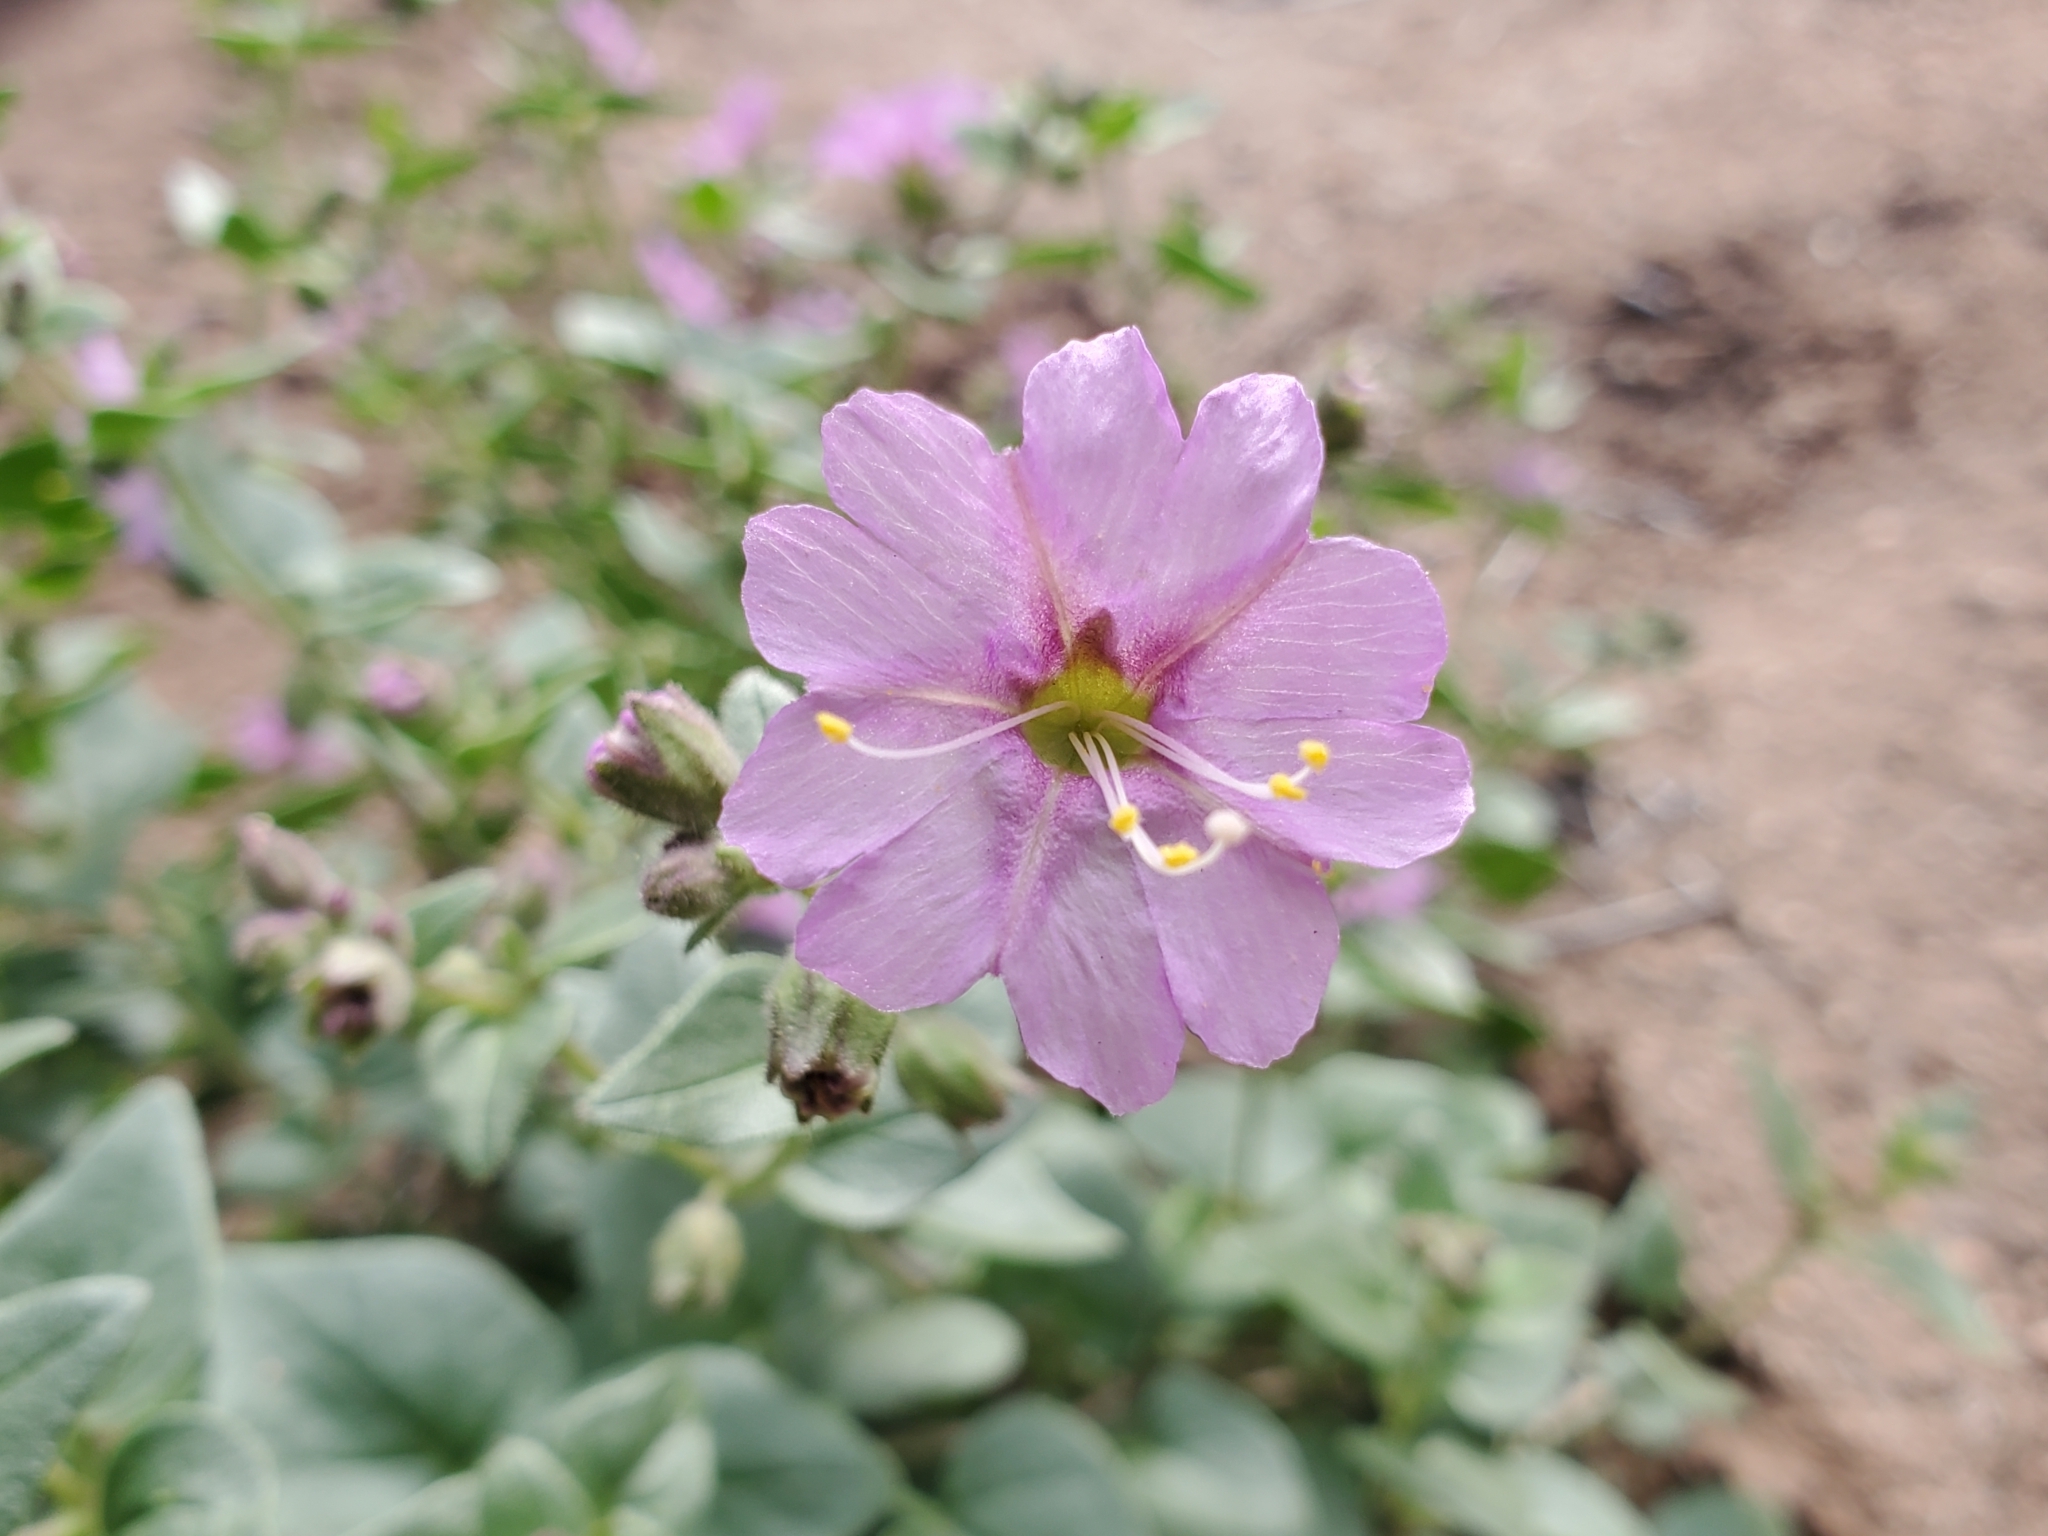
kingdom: Plantae
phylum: Tracheophyta
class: Magnoliopsida
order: Caryophyllales
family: Nyctaginaceae
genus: Mirabilis
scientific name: Mirabilis laevis
